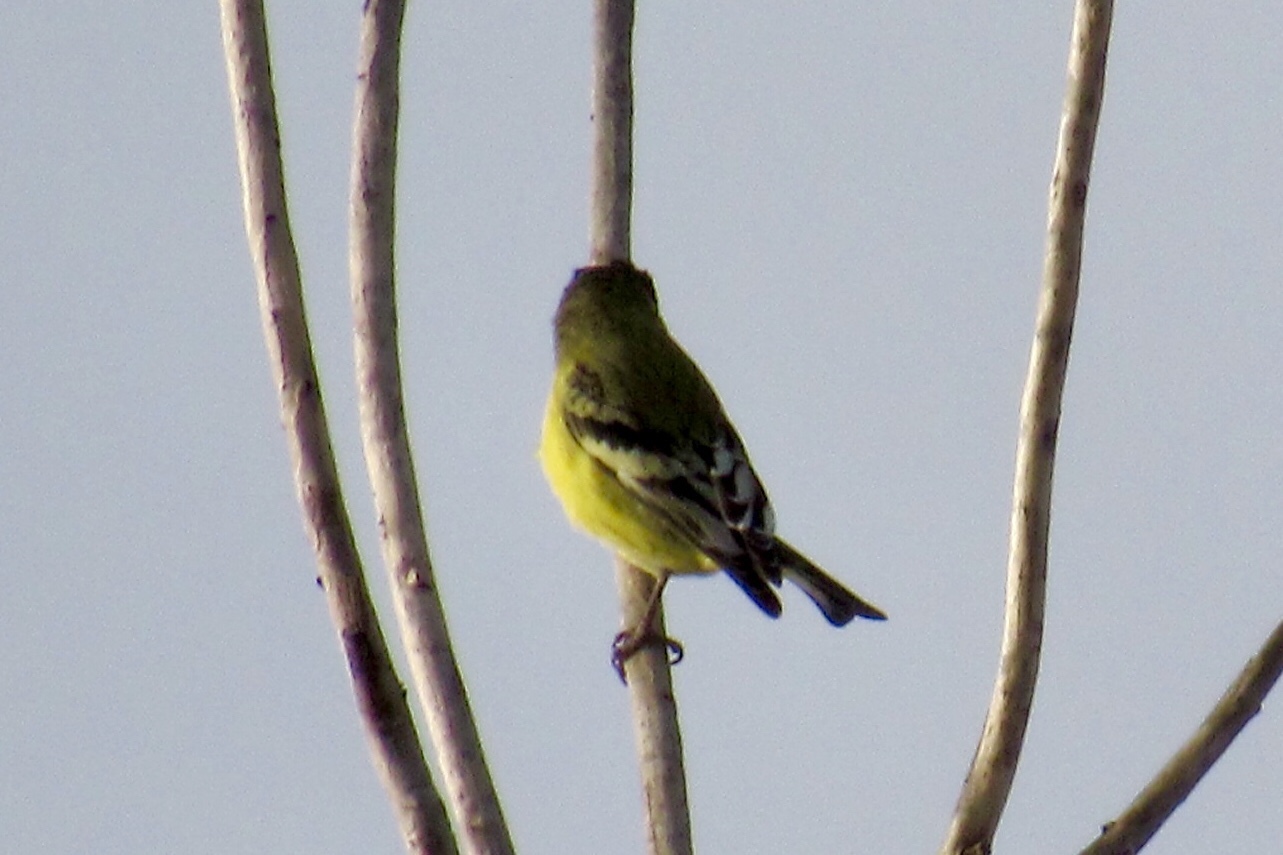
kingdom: Animalia
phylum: Chordata
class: Aves
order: Passeriformes
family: Fringillidae
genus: Spinus
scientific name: Spinus psaltria
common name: Lesser goldfinch
